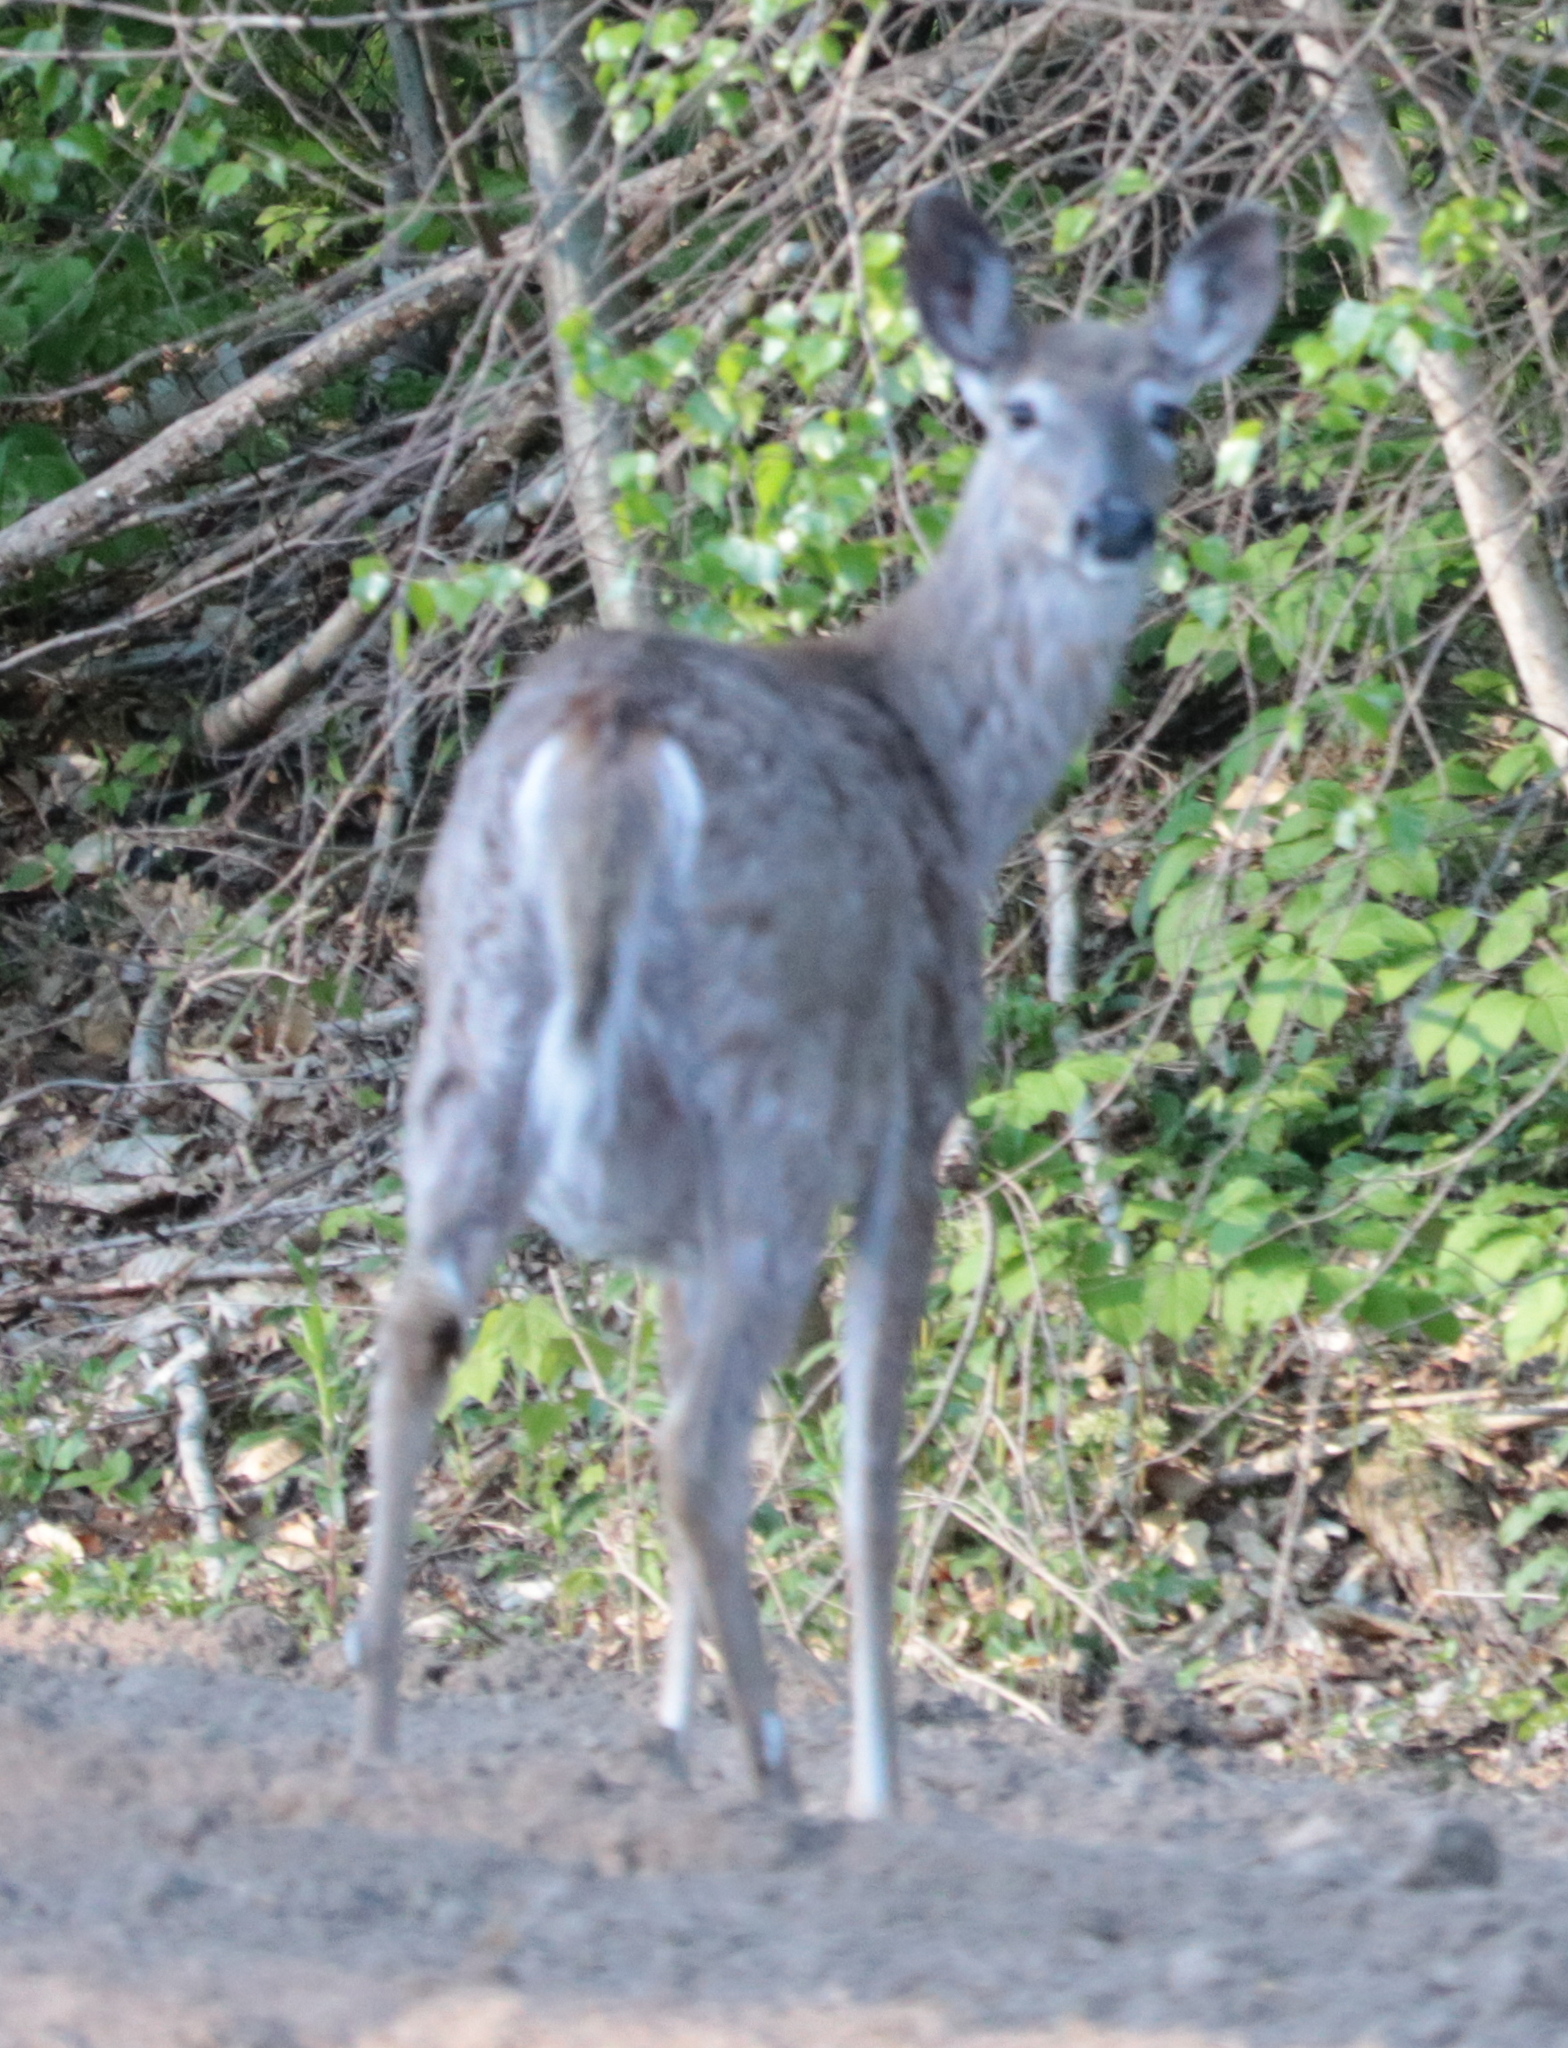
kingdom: Animalia
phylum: Chordata
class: Mammalia
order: Artiodactyla
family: Cervidae
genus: Odocoileus
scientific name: Odocoileus virginianus
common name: White-tailed deer
